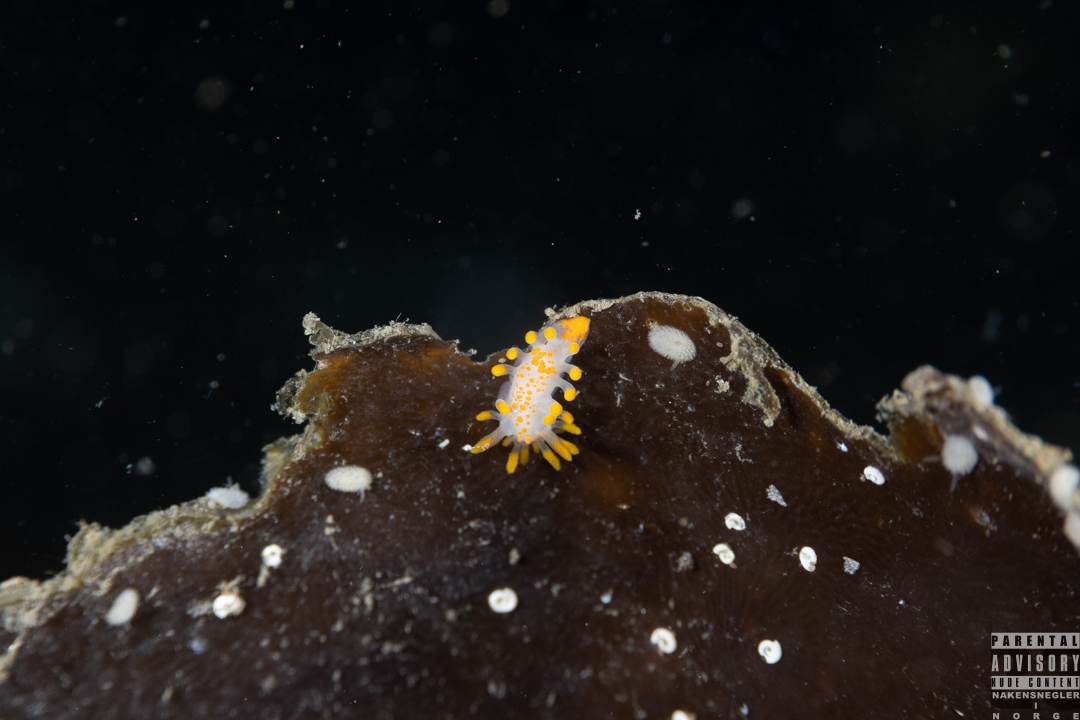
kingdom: Animalia
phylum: Mollusca
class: Gastropoda
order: Nudibranchia
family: Polyceridae
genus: Limacia
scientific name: Limacia clavigera
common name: Orange-clubbed sea slug
